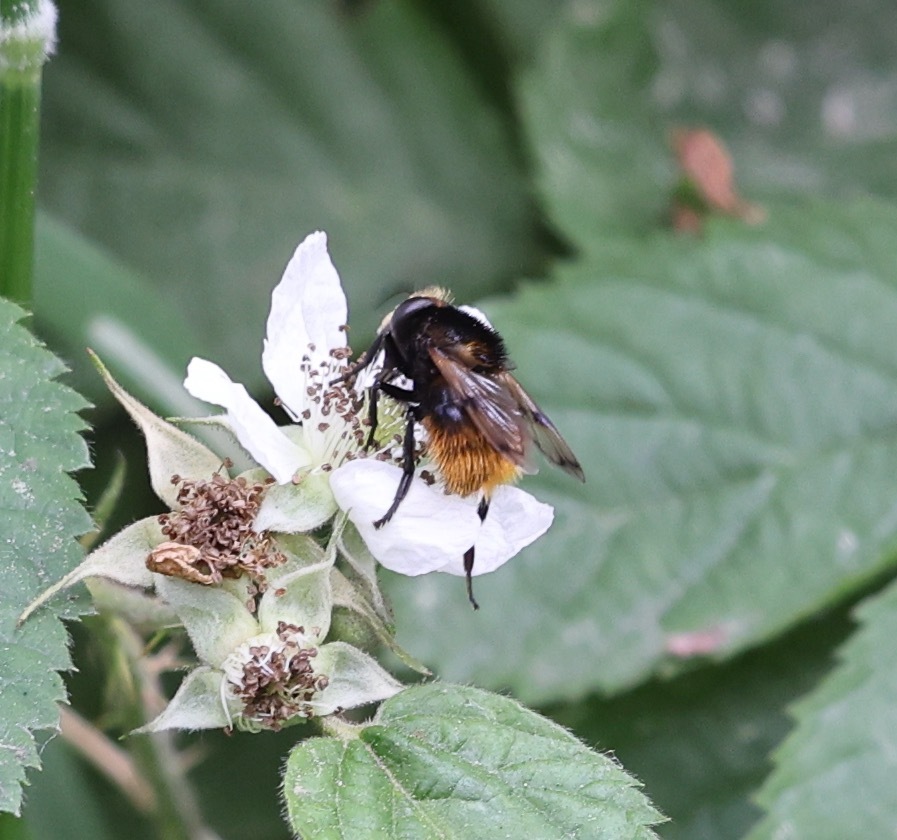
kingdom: Animalia
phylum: Arthropoda
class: Insecta
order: Diptera
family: Syrphidae
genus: Volucella
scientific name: Volucella bombylans
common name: Bumble bee hover fly
